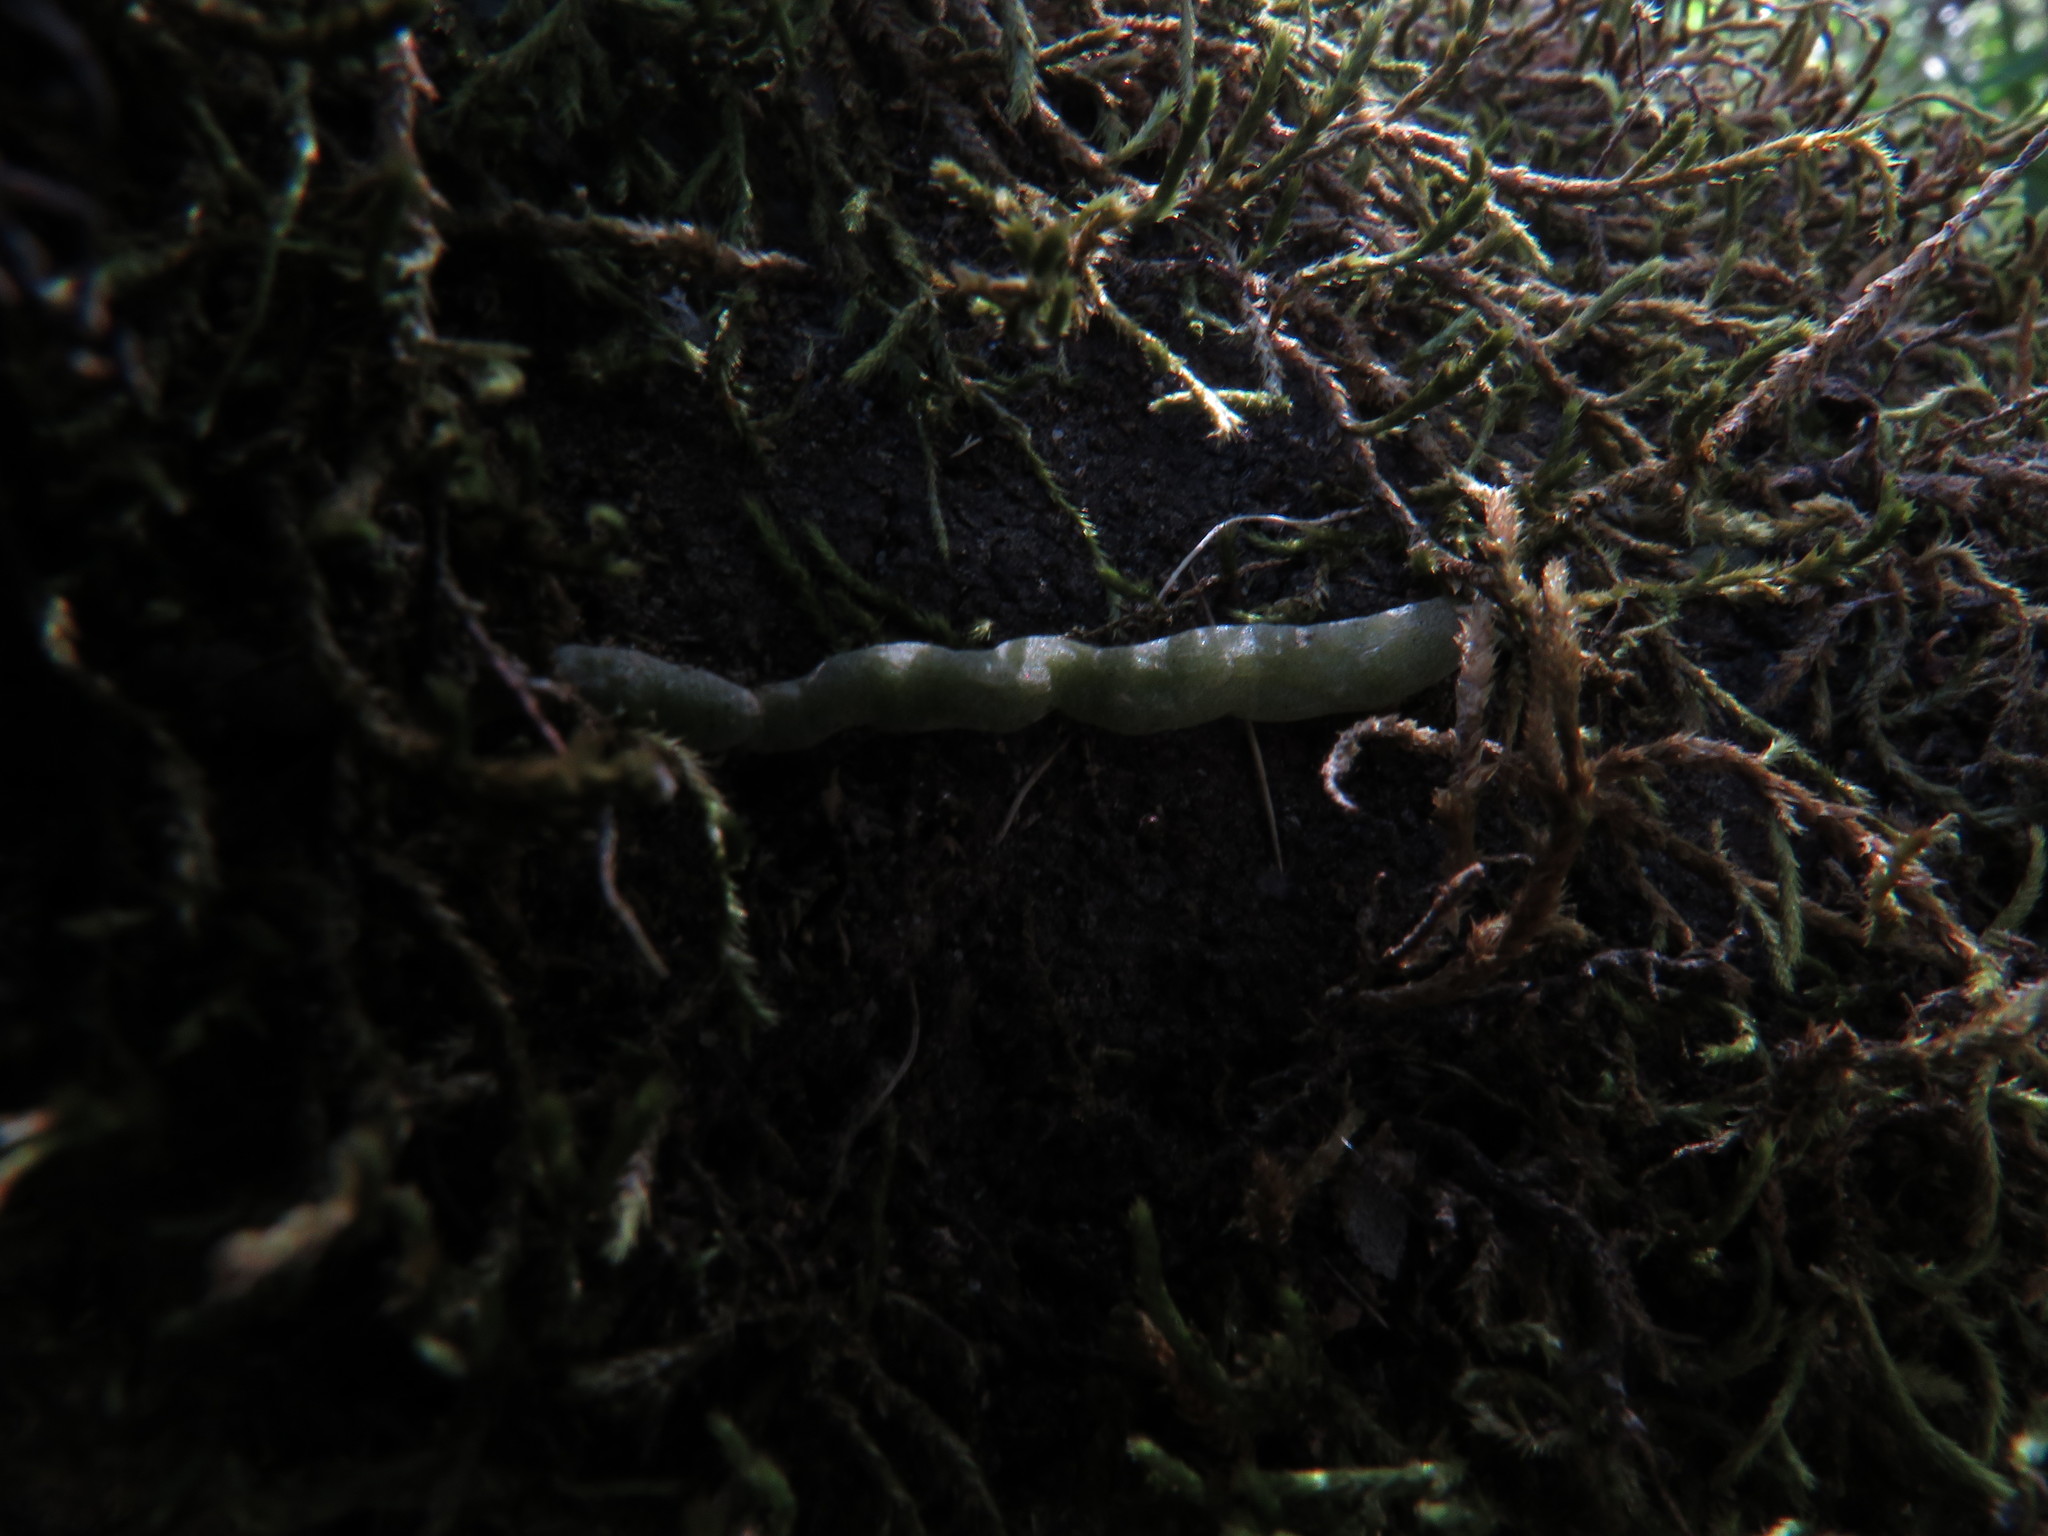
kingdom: Plantae
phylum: Tracheophyta
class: Liliopsida
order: Asparagales
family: Orchidaceae
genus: Angraecum
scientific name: Angraecum sacciferum
